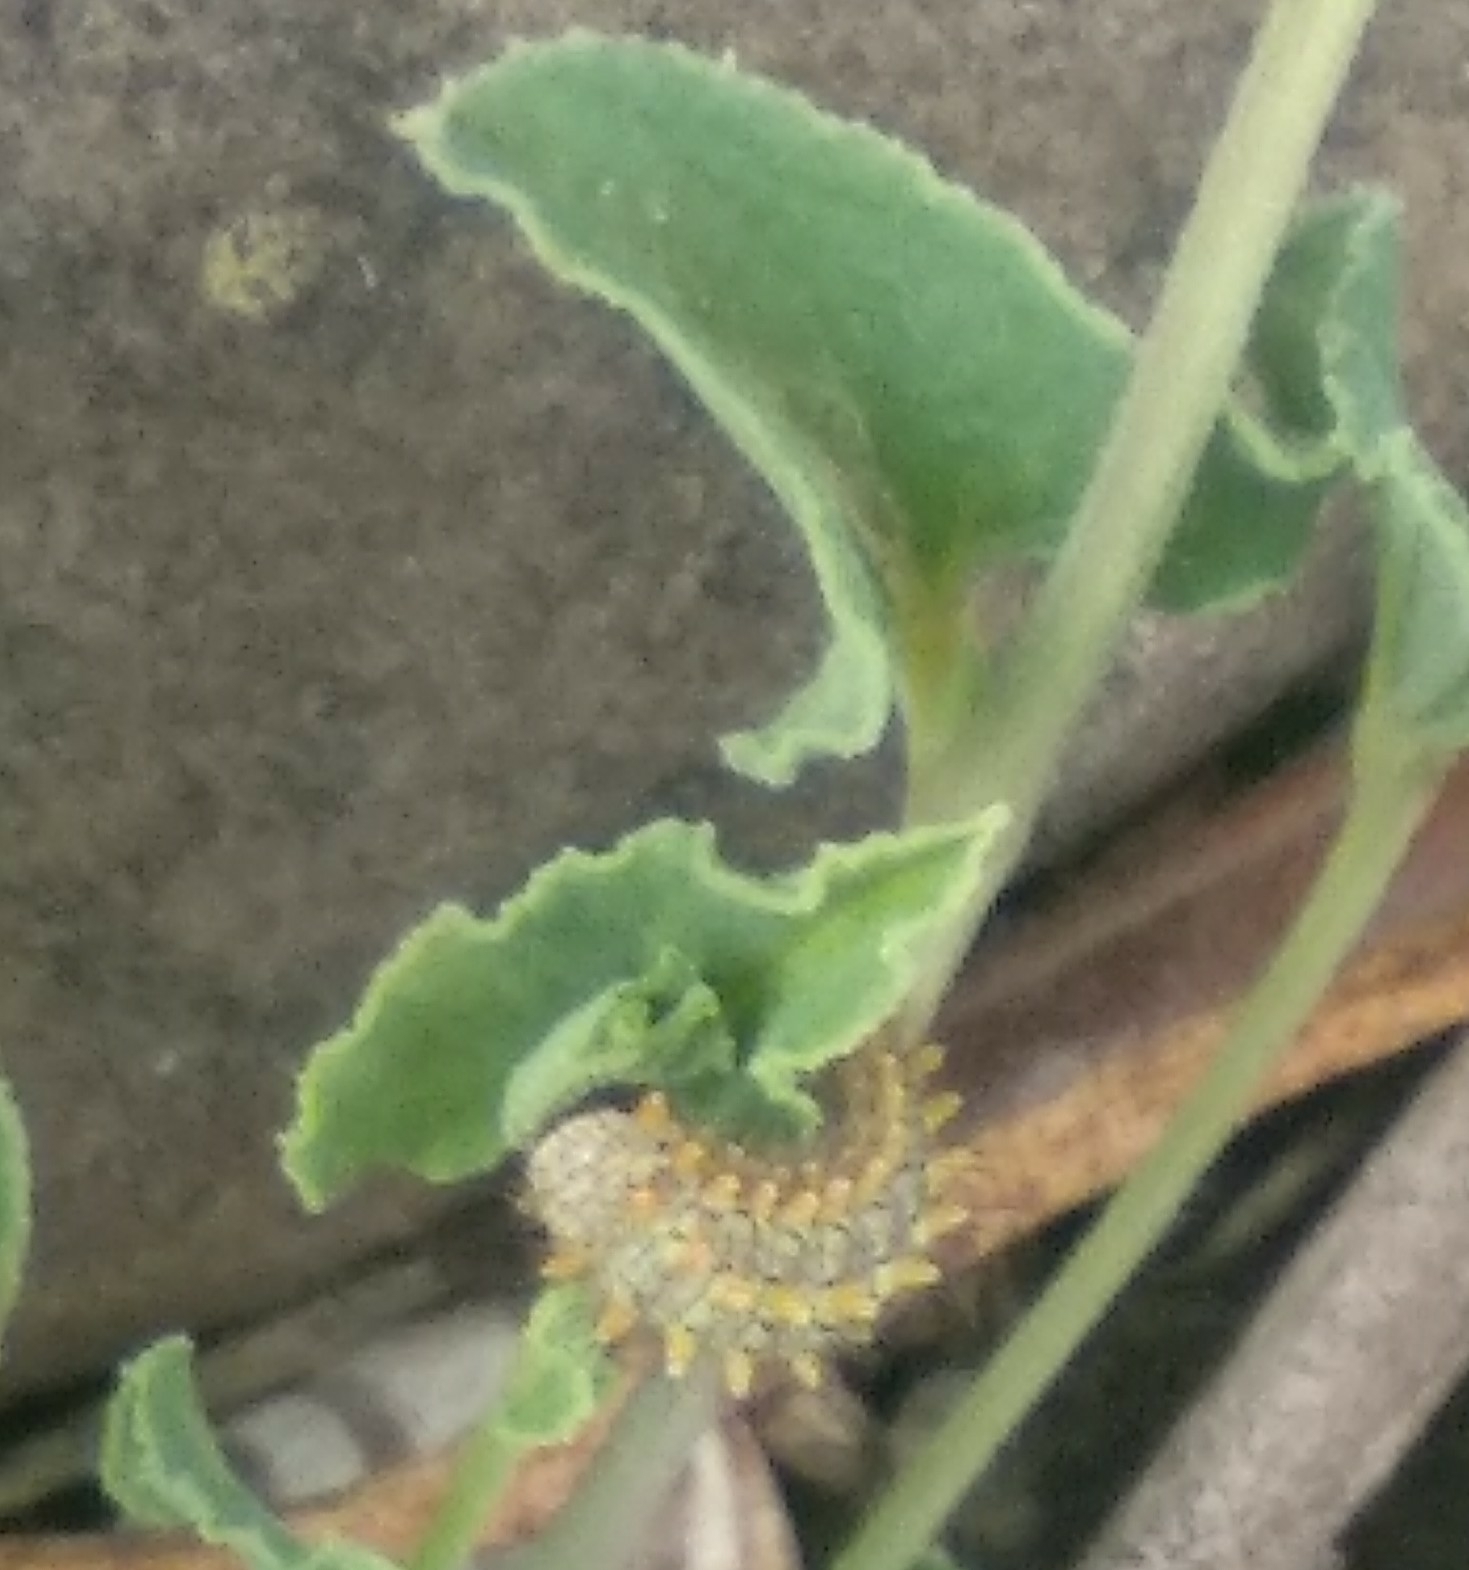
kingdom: Animalia
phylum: Arthropoda
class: Insecta
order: Lepidoptera
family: Papilionidae
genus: Zerynthia
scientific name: Zerynthia rumina
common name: Spanish festoon
